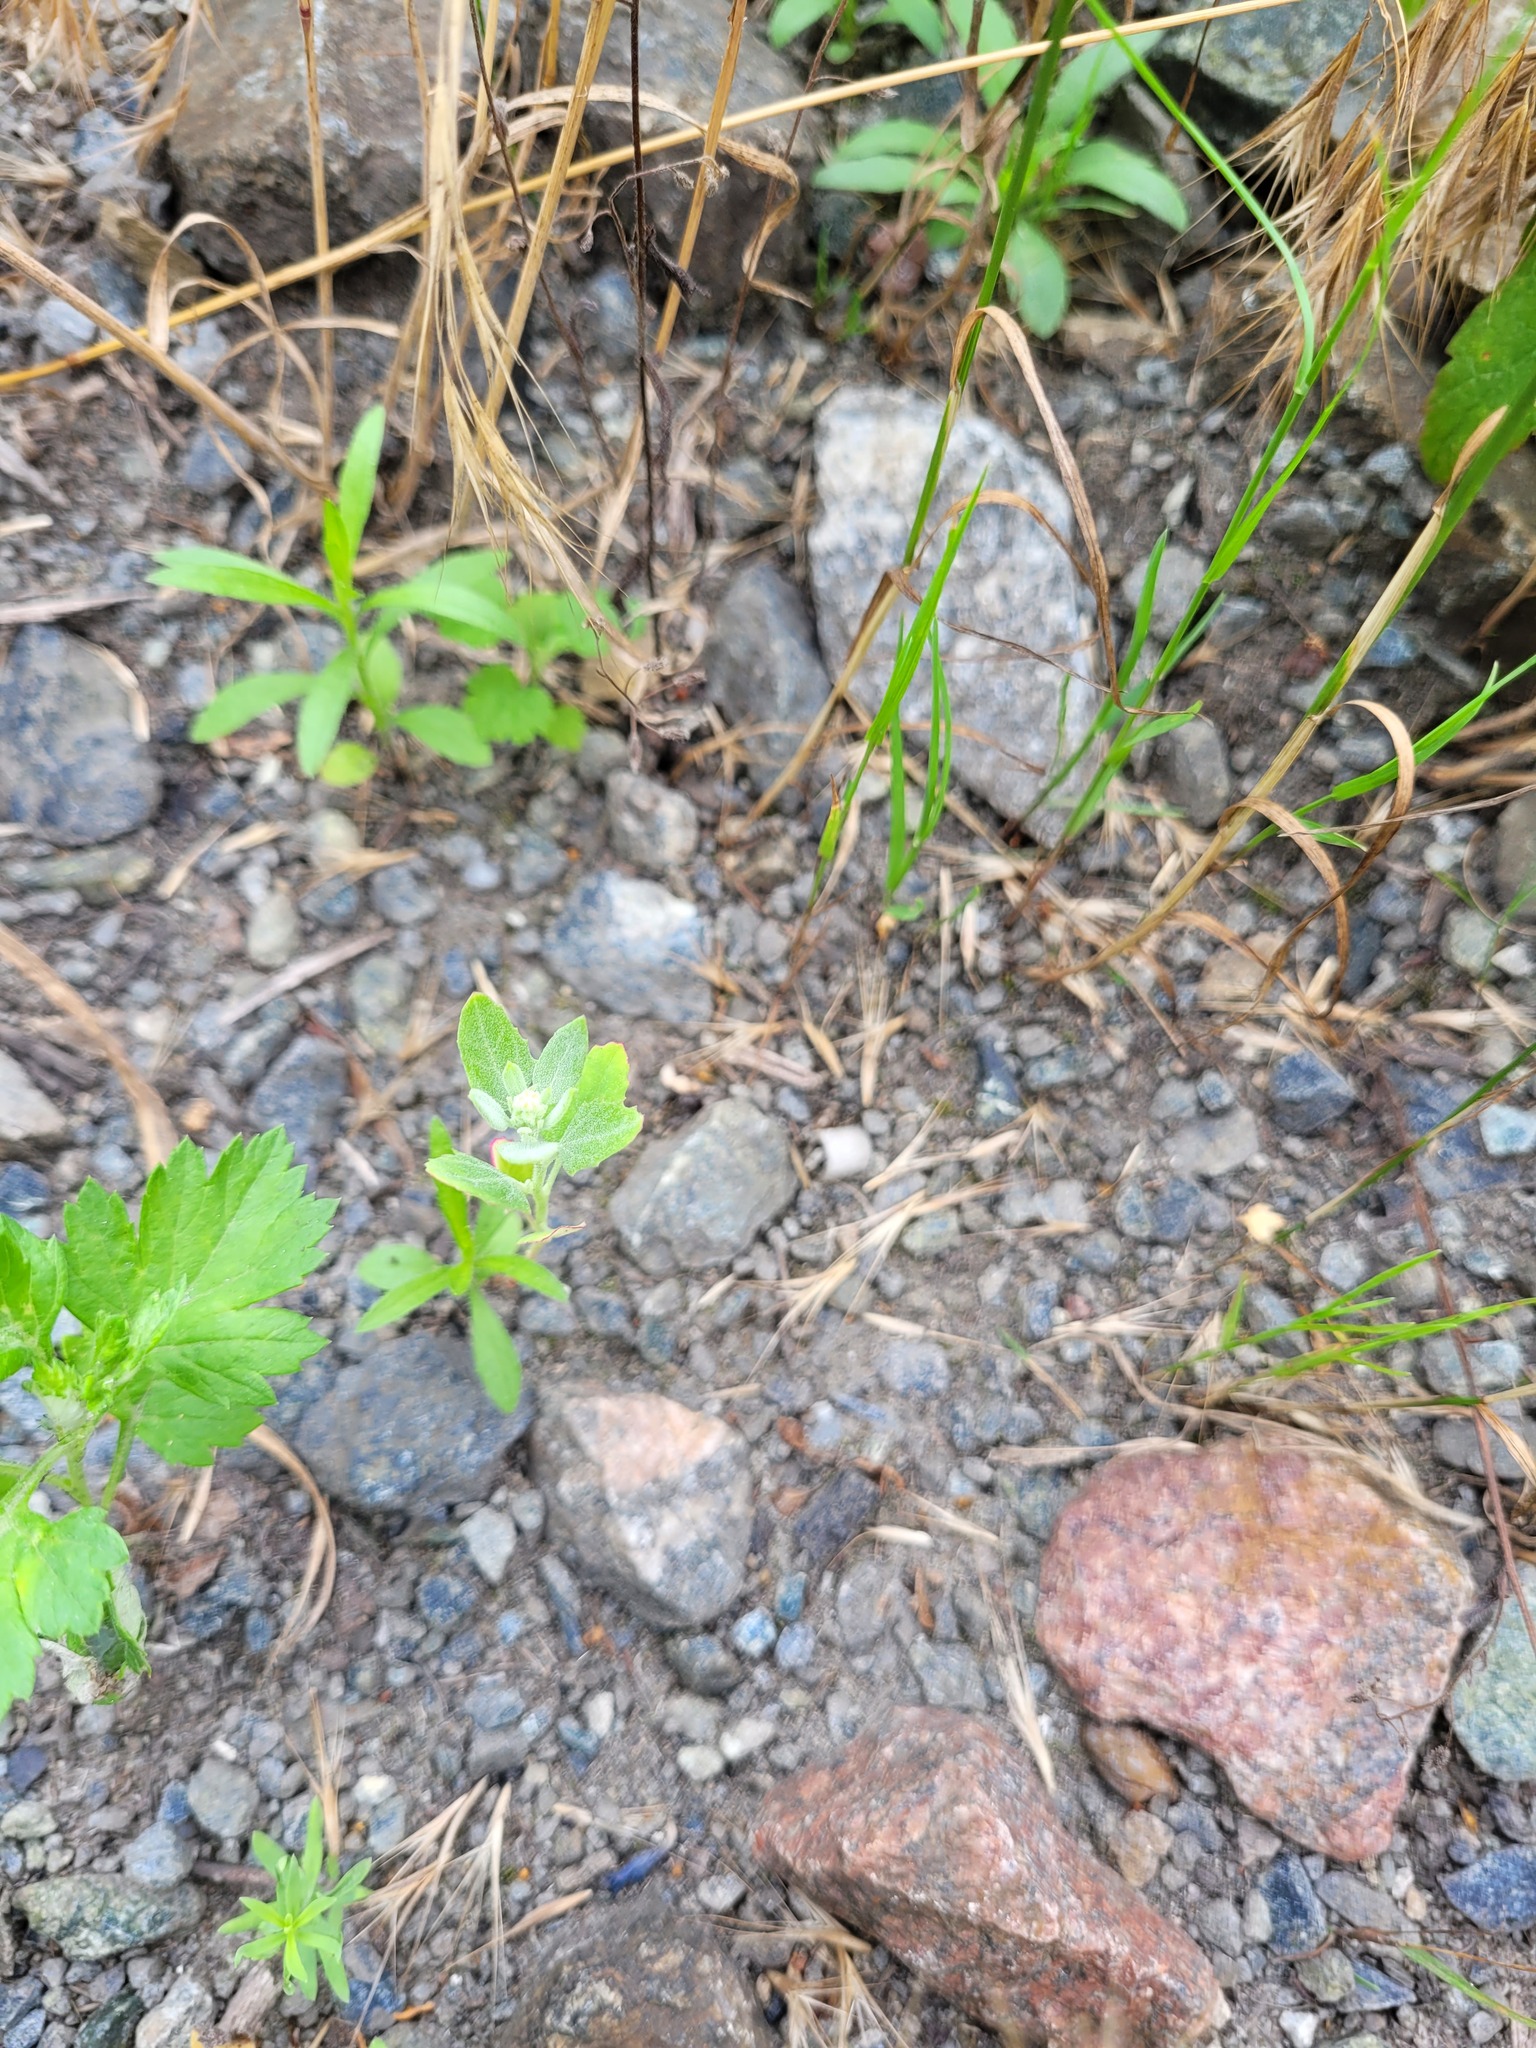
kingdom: Plantae
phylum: Tracheophyta
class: Magnoliopsida
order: Caryophyllales
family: Amaranthaceae
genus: Chenopodium
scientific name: Chenopodium album
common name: Fat-hen
